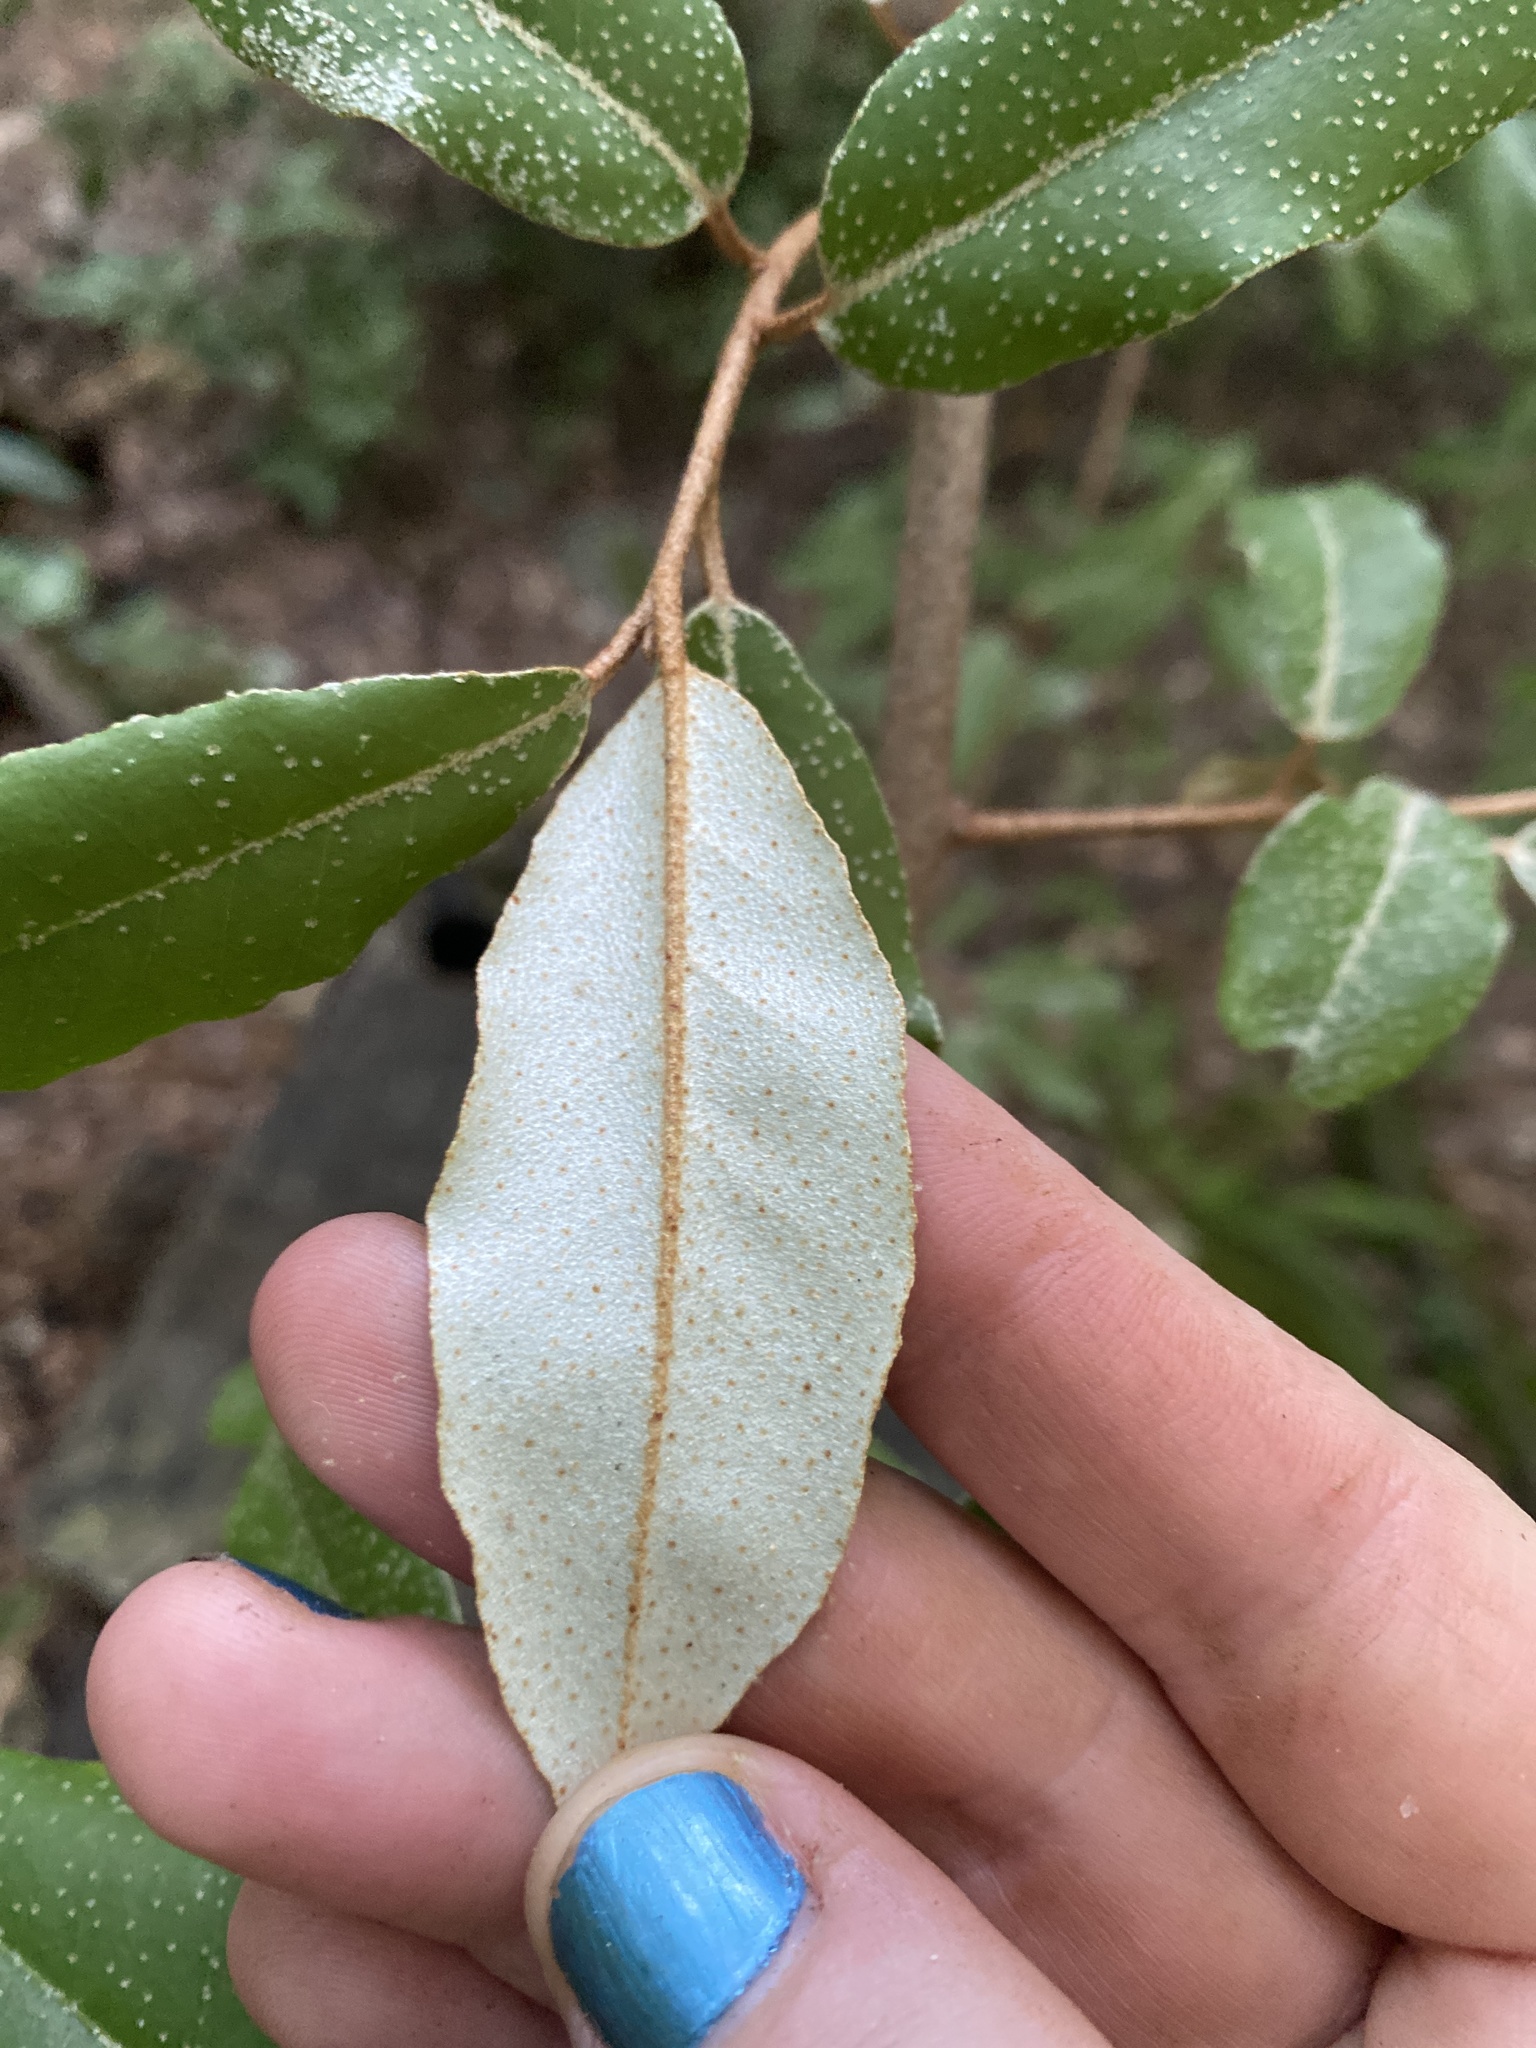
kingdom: Plantae
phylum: Tracheophyta
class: Magnoliopsida
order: Rosales
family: Elaeagnaceae
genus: Elaeagnus
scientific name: Elaeagnus pungens
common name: Spiny oleaster
